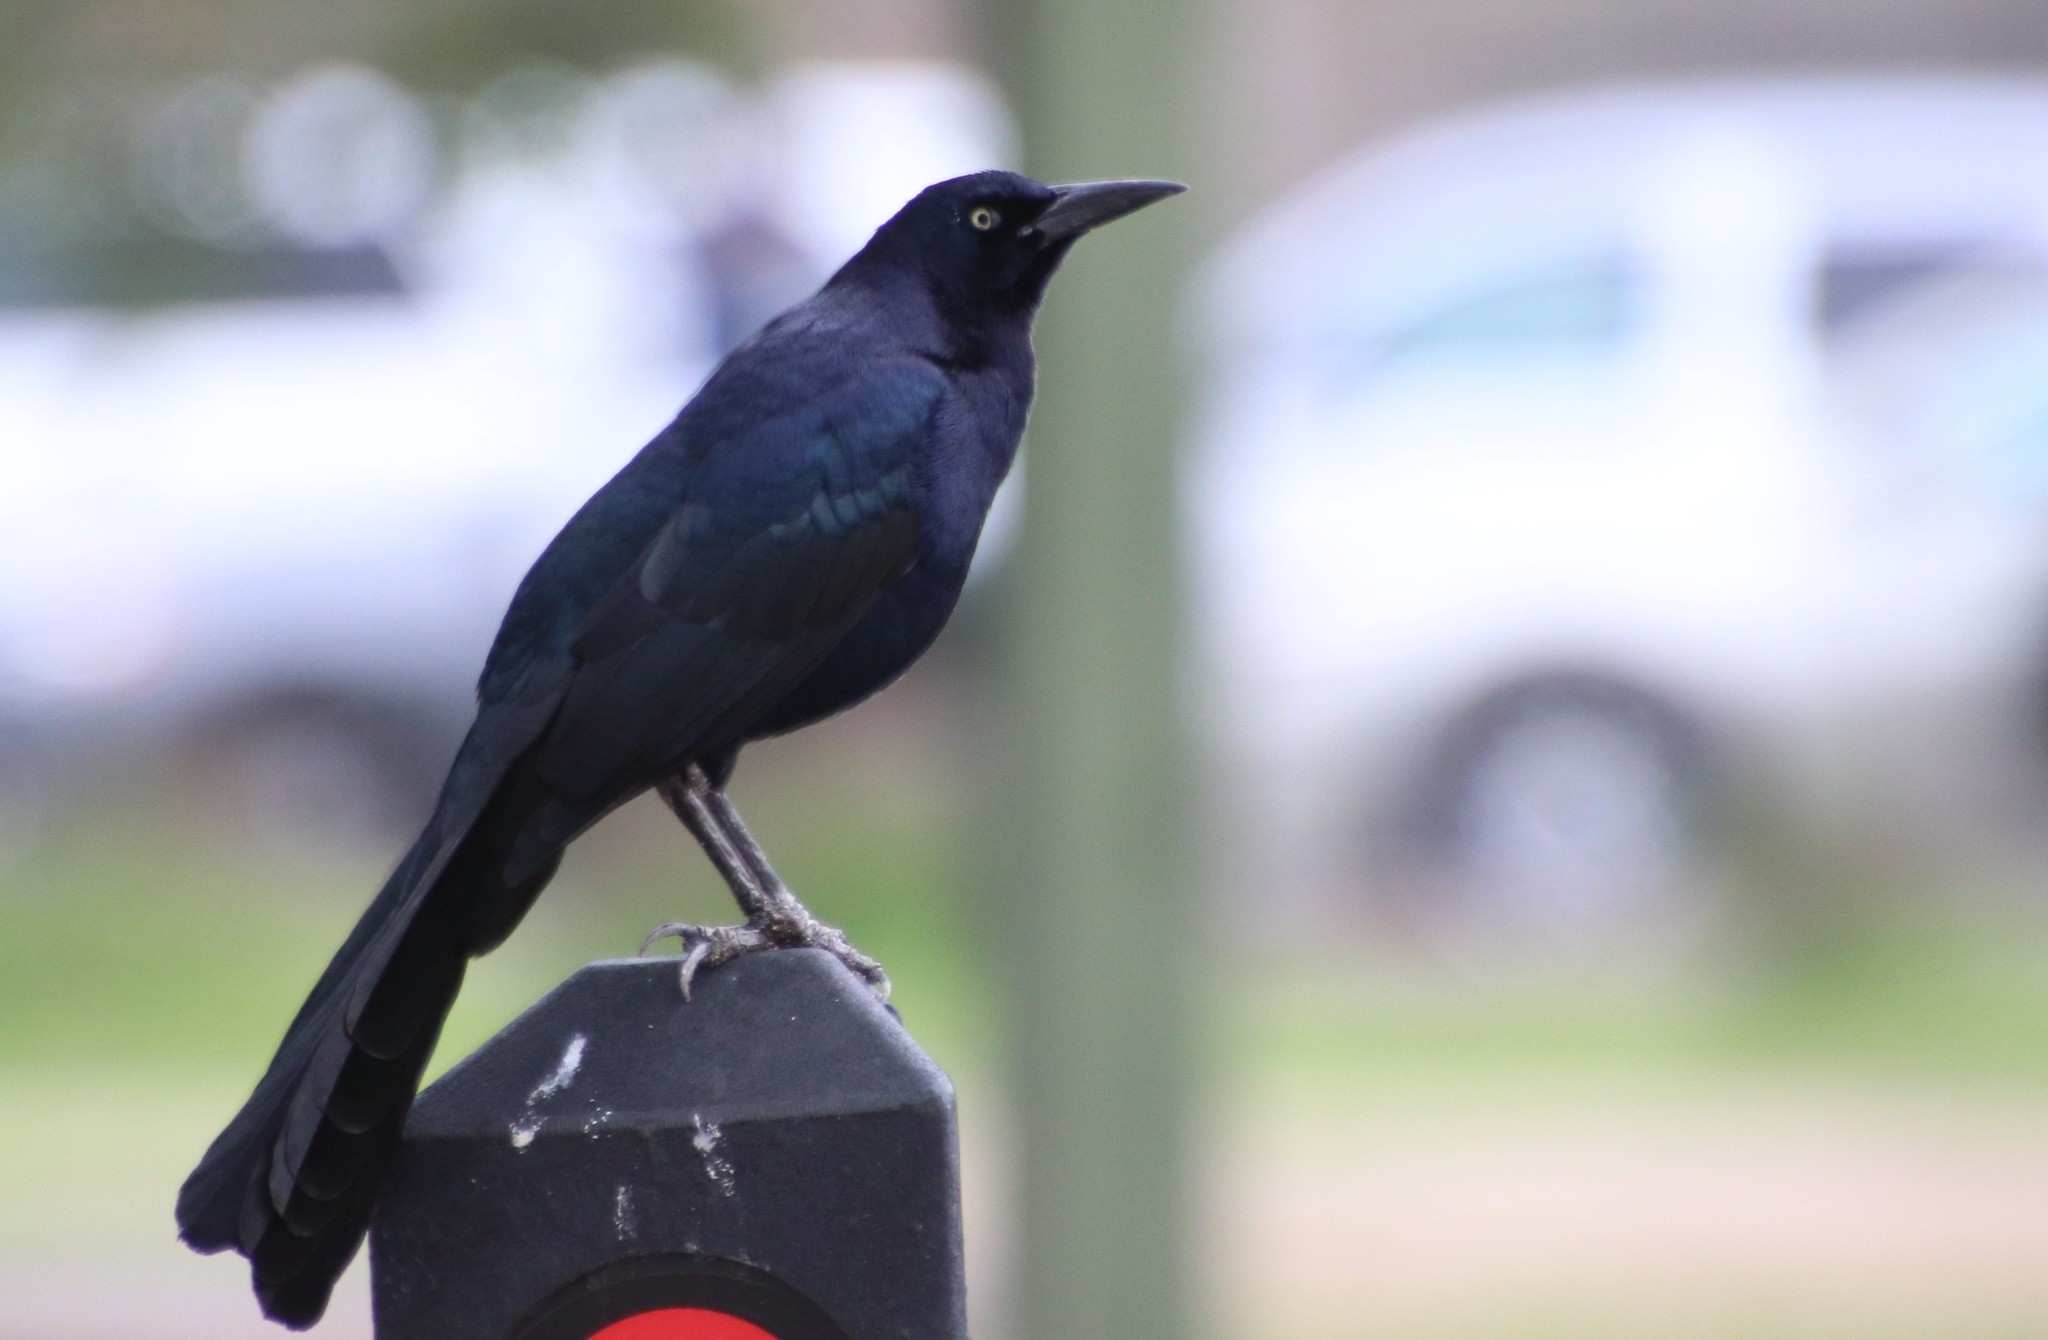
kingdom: Animalia
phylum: Chordata
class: Aves
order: Passeriformes
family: Icteridae
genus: Quiscalus
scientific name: Quiscalus mexicanus
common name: Great-tailed grackle
